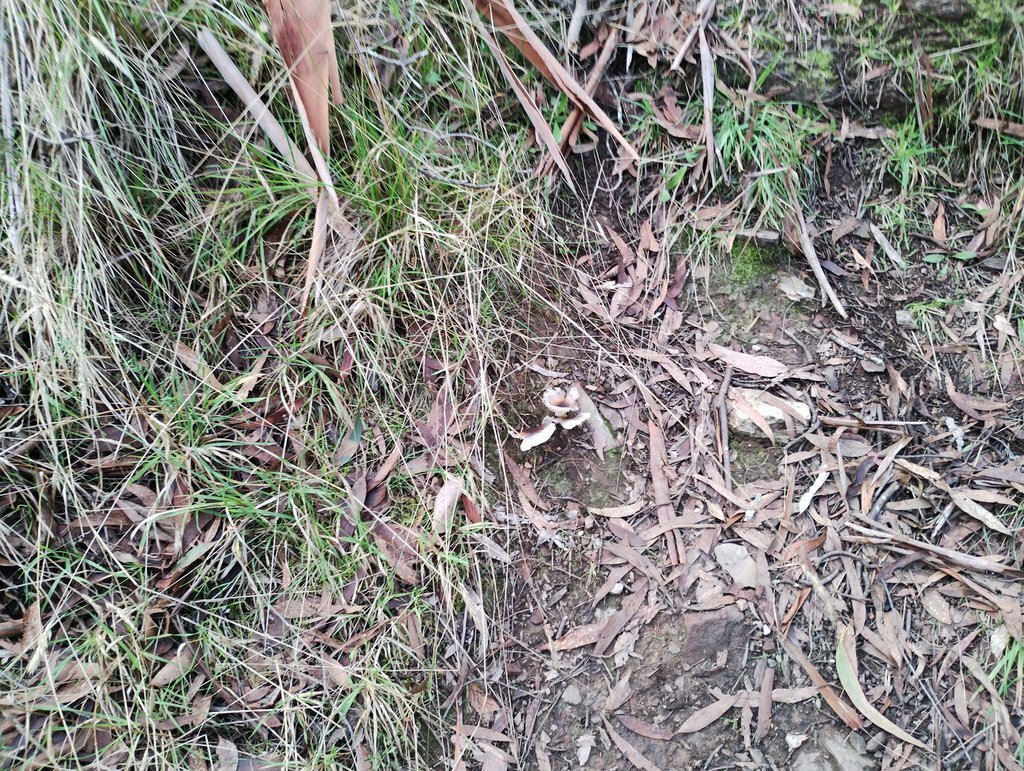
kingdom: Fungi
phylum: Basidiomycota
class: Agaricomycetes
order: Agaricales
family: Omphalotaceae
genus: Omphalotus
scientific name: Omphalotus nidiformis
